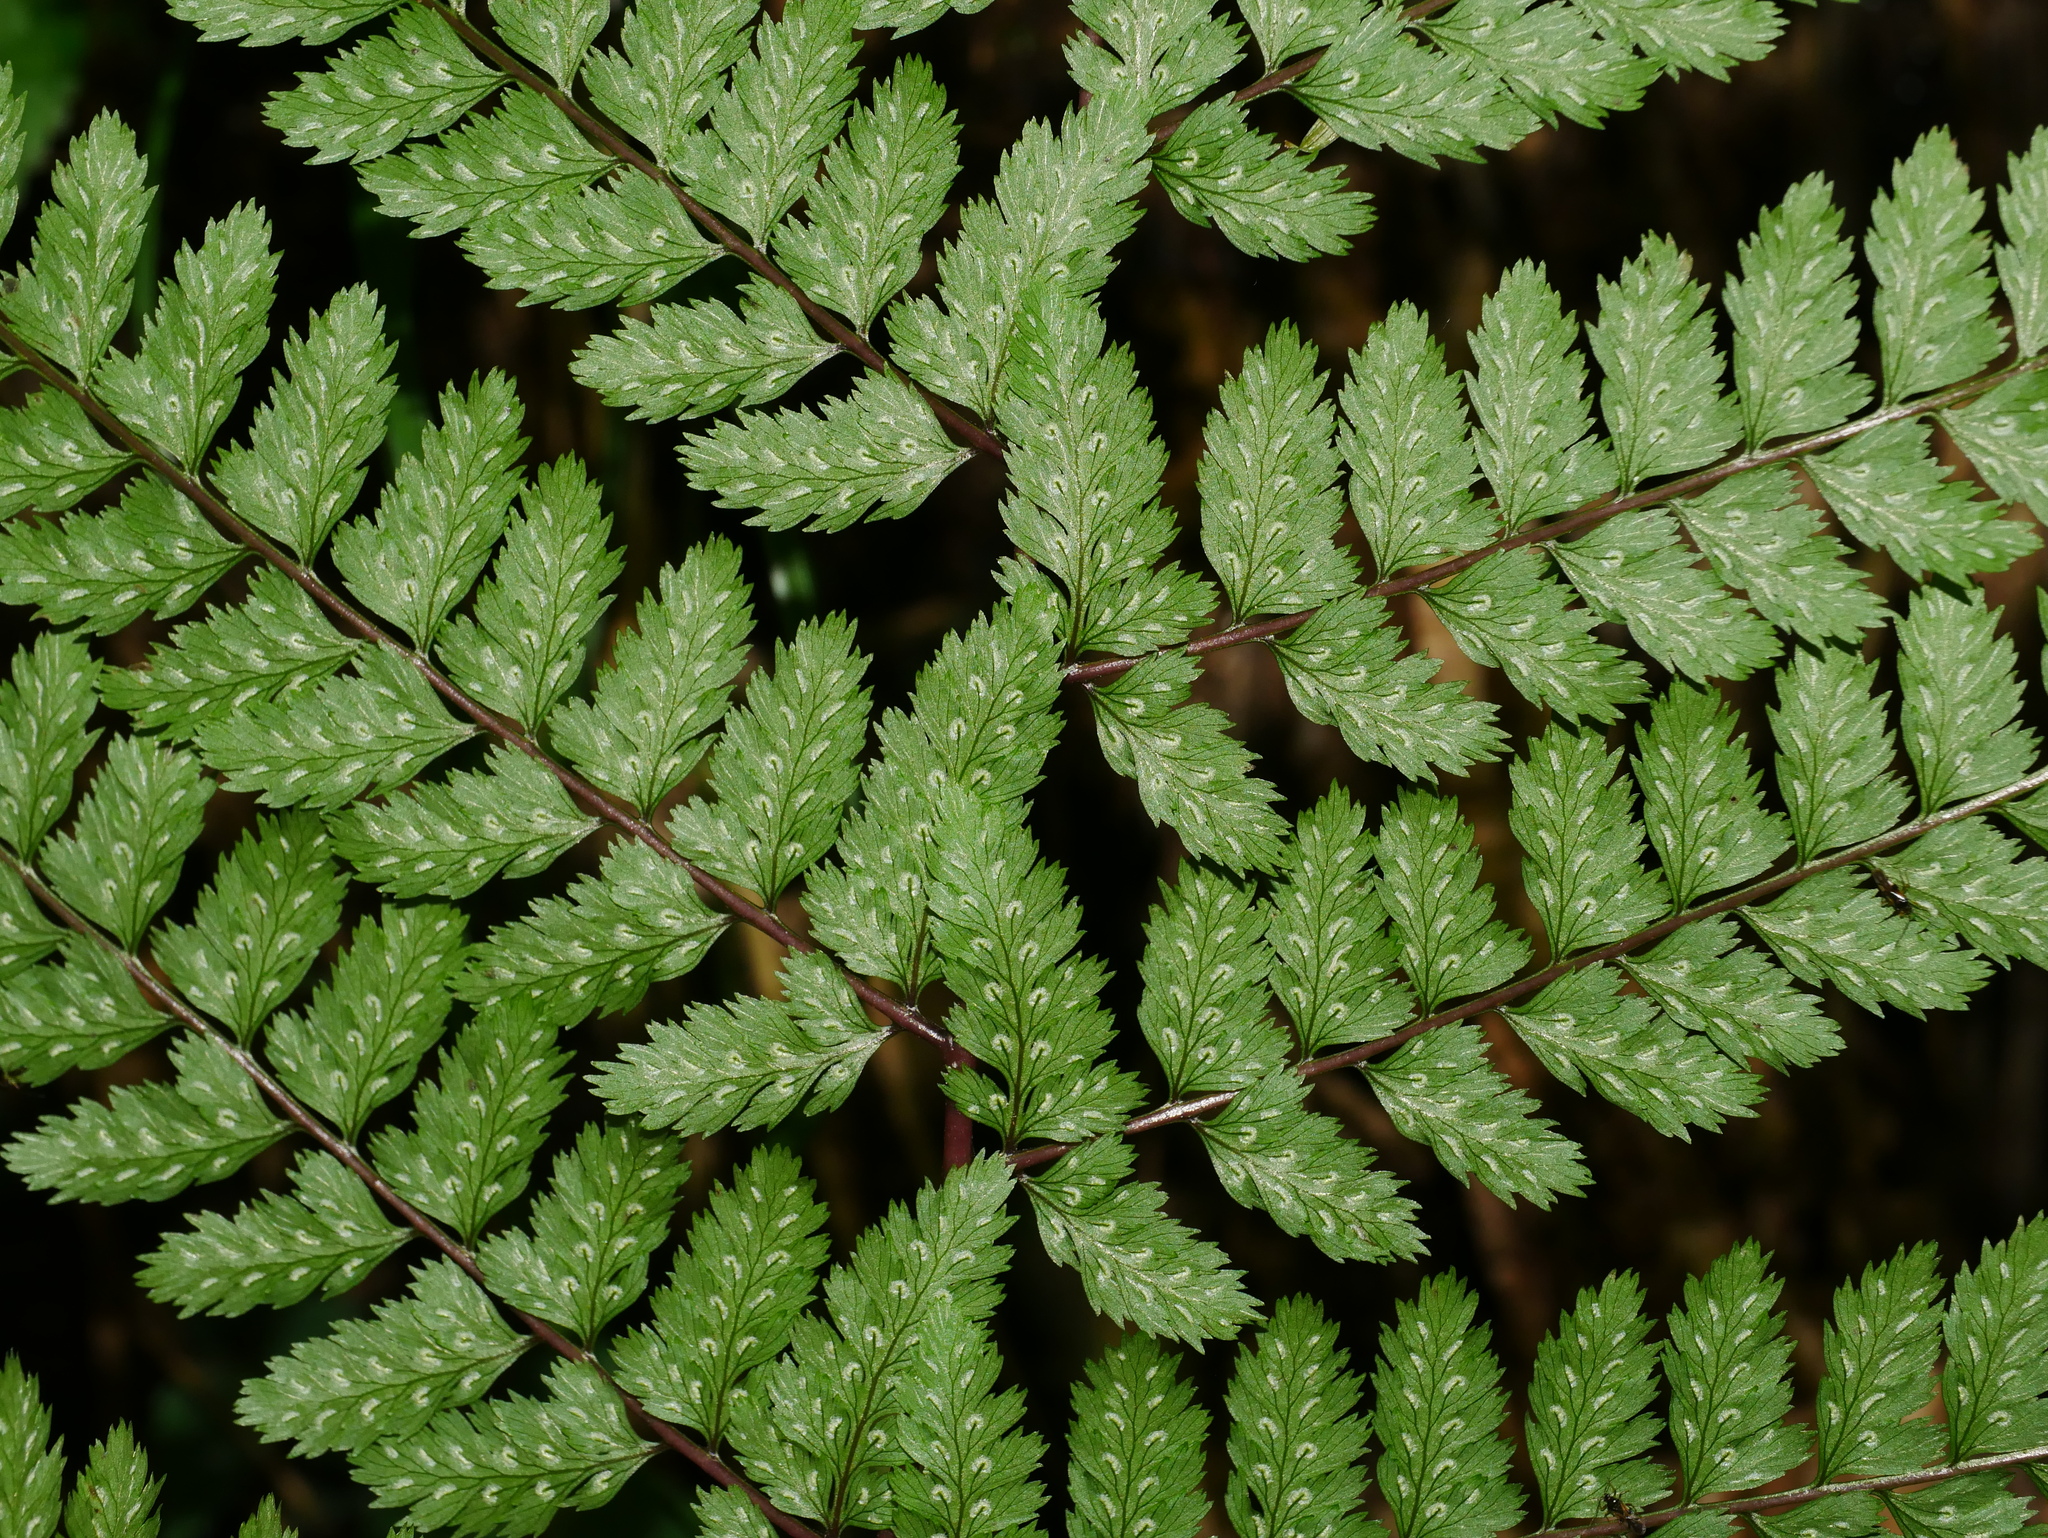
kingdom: Plantae
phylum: Tracheophyta
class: Polypodiopsida
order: Polypodiales
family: Athyriaceae
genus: Athyrium
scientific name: Athyrium tripinnatum
